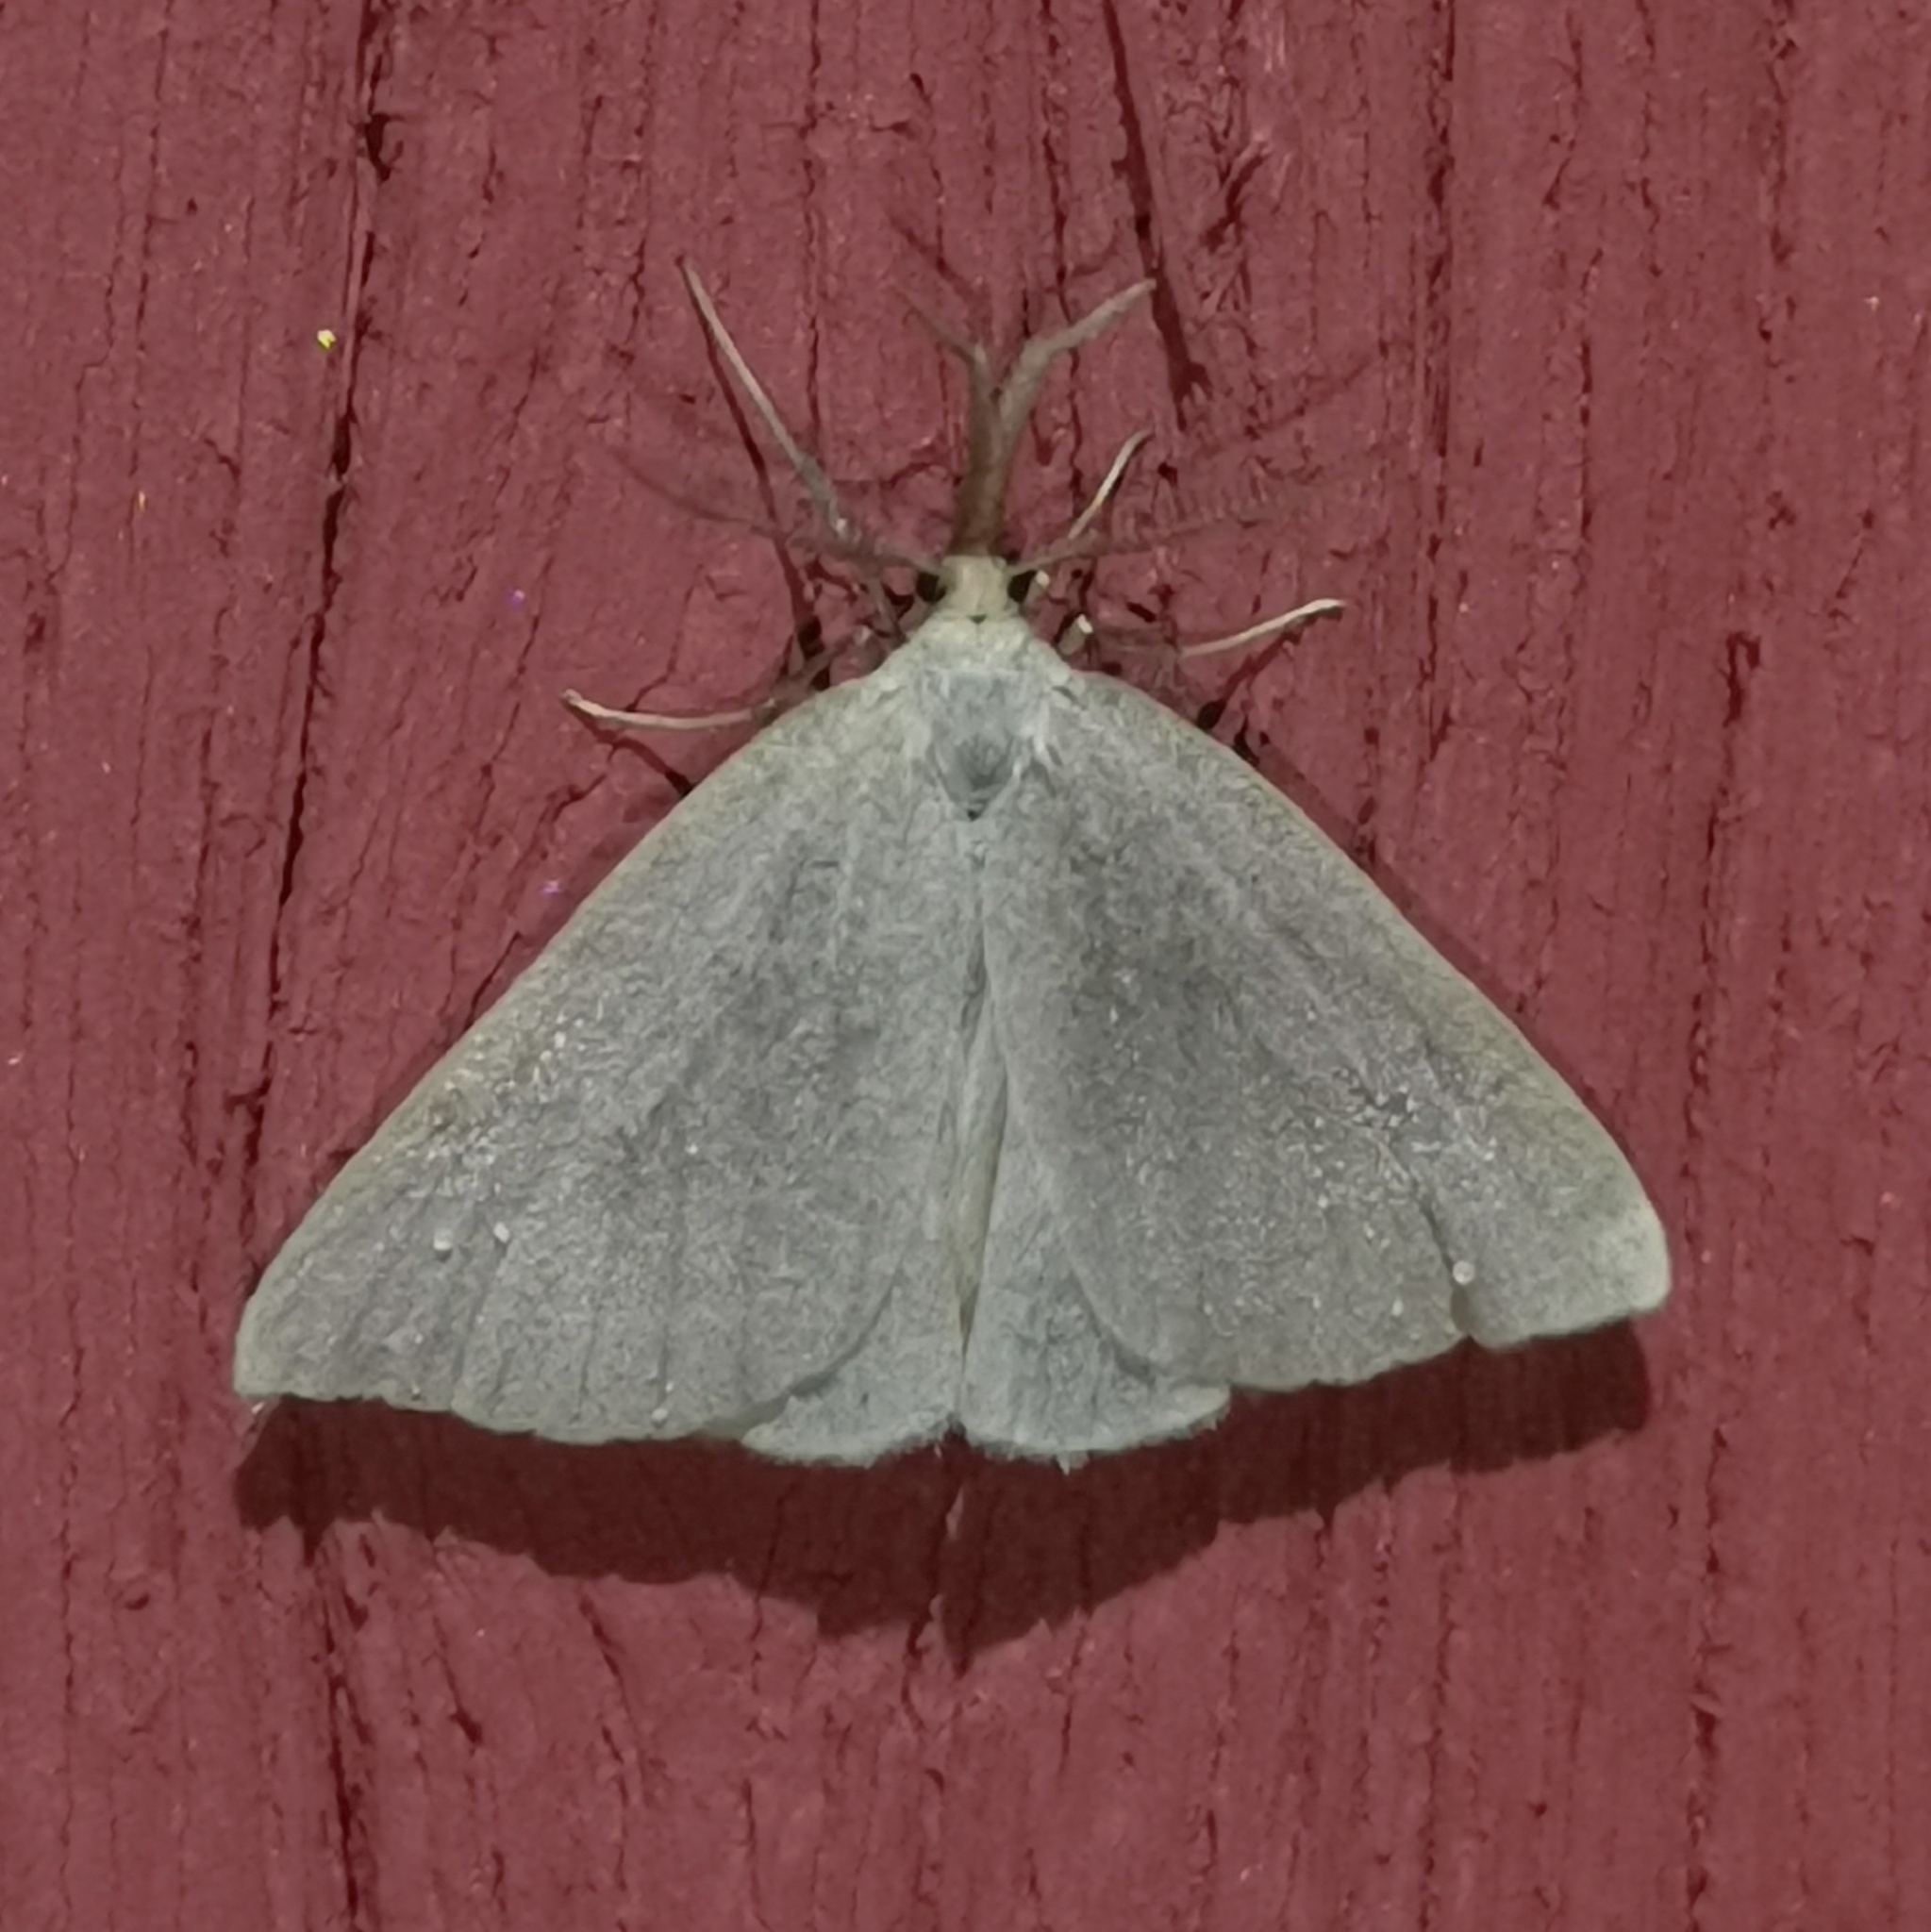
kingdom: Animalia
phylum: Arthropoda
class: Insecta
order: Lepidoptera
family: Erebidae
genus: Polypogon
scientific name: Polypogon tentacularia
